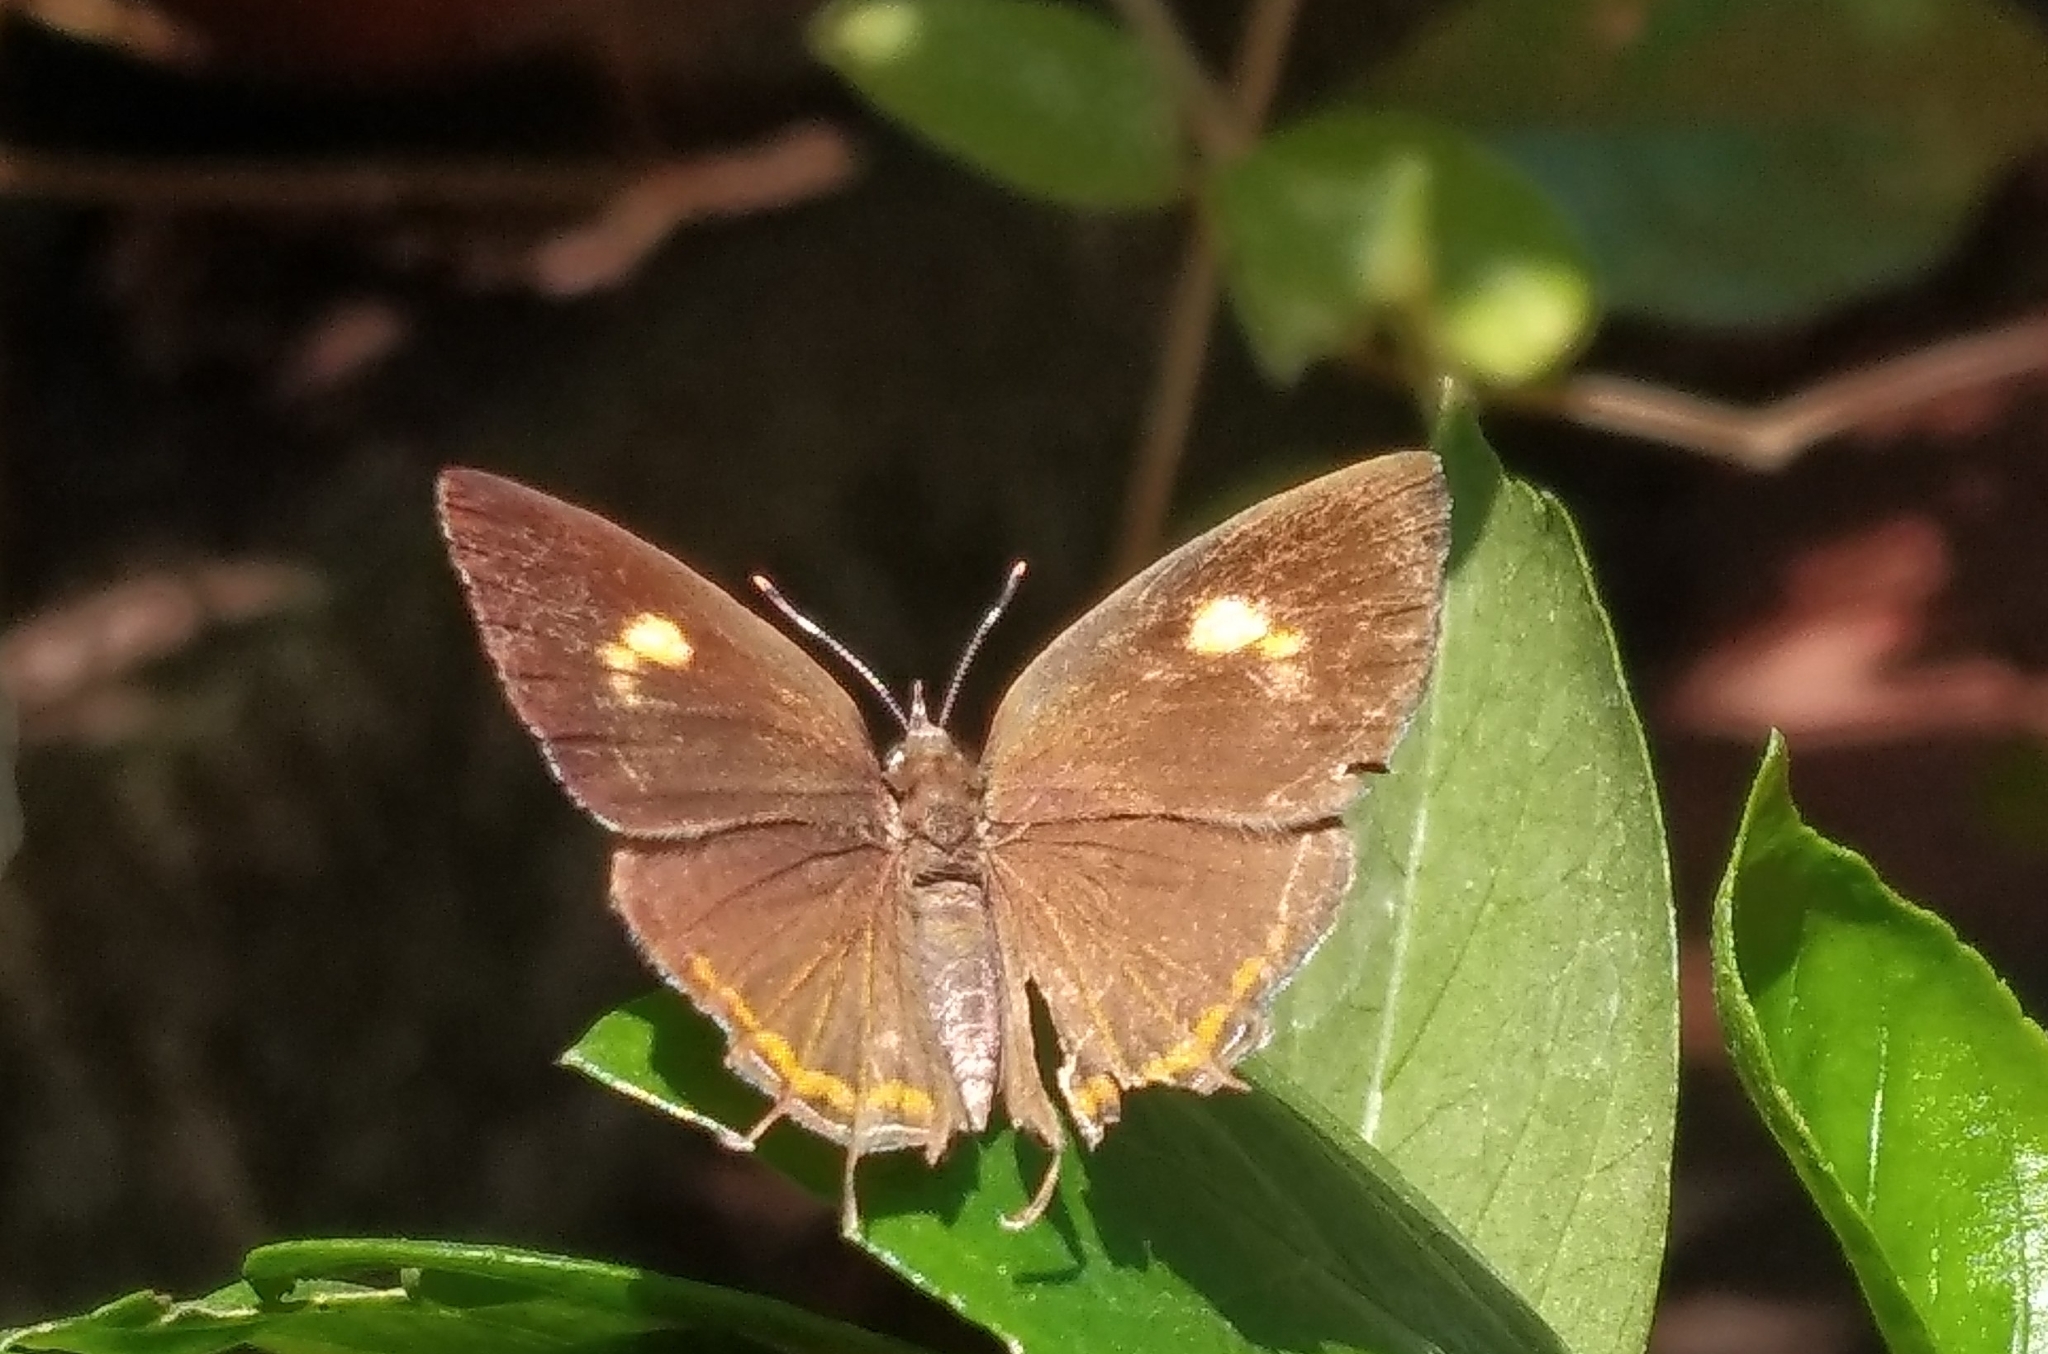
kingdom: Animalia
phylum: Arthropoda
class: Insecta
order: Lepidoptera
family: Lycaenidae
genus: Rathinda
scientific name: Rathinda amor
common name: Monkey puzzle
